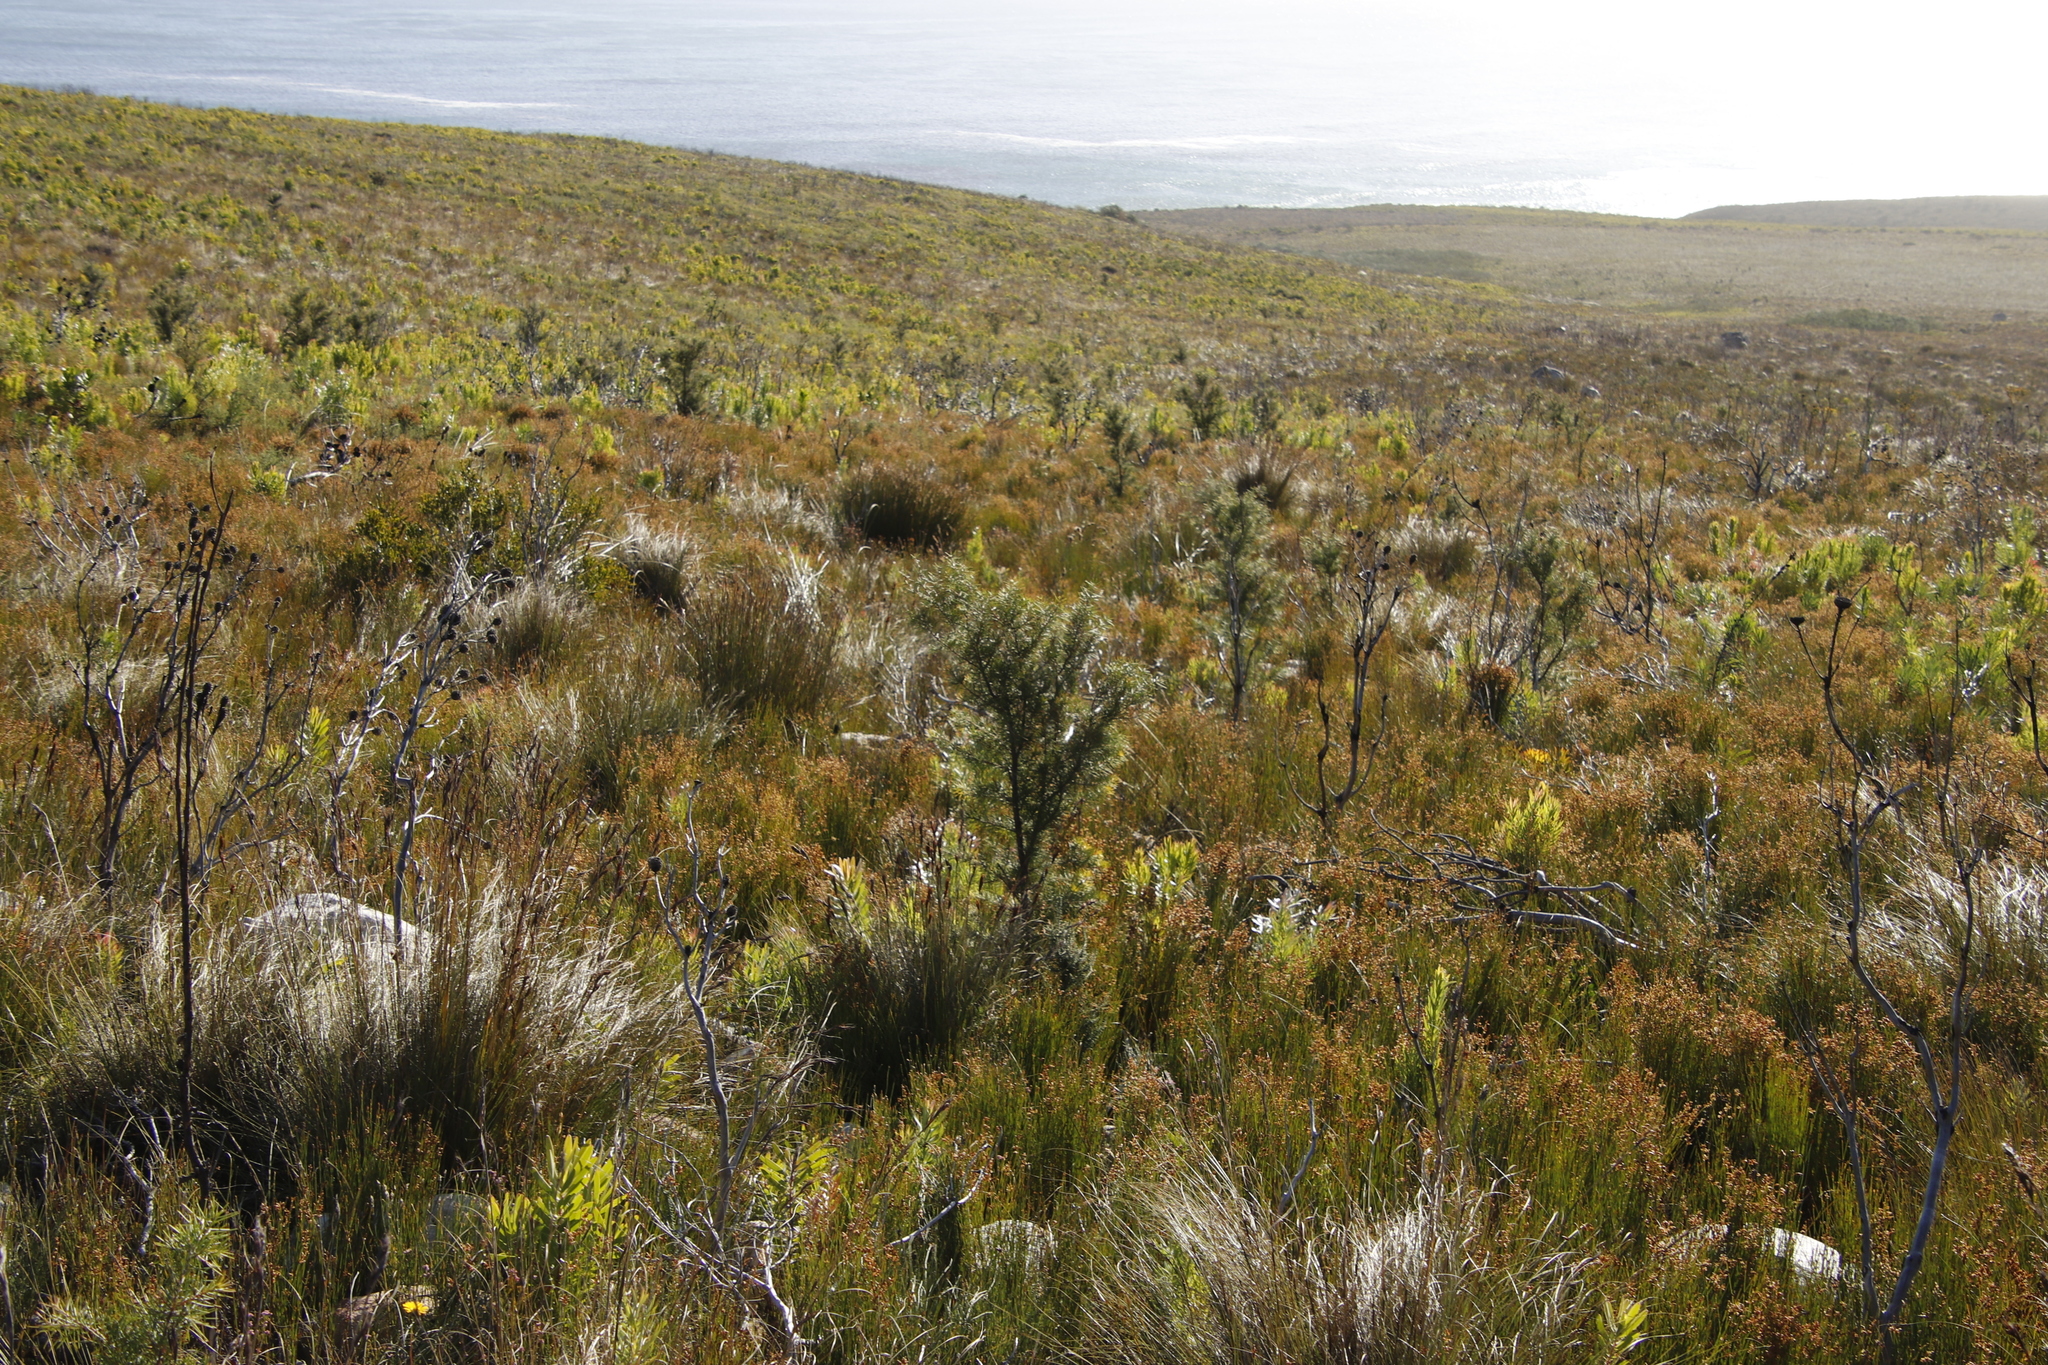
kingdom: Plantae
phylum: Tracheophyta
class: Magnoliopsida
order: Proteales
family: Proteaceae
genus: Hakea
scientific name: Hakea sericea
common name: Needle bush
